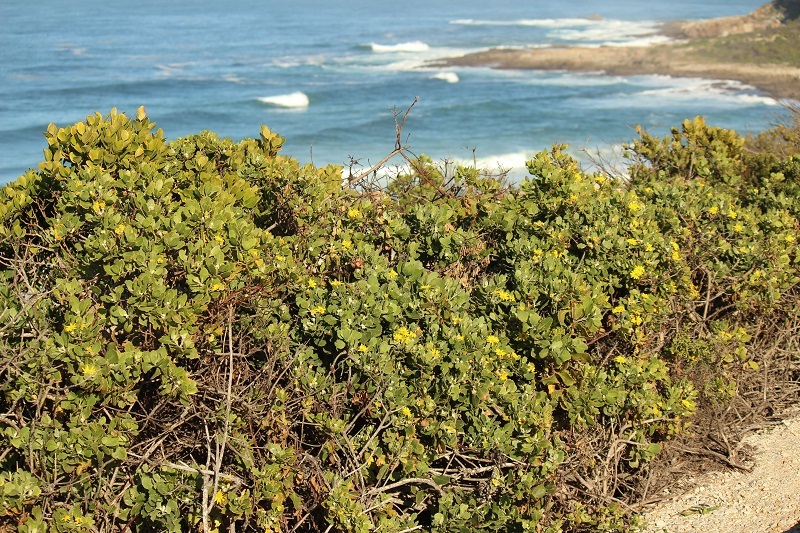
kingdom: Plantae
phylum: Tracheophyta
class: Magnoliopsida
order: Asterales
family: Asteraceae
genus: Osteospermum
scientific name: Osteospermum moniliferum
